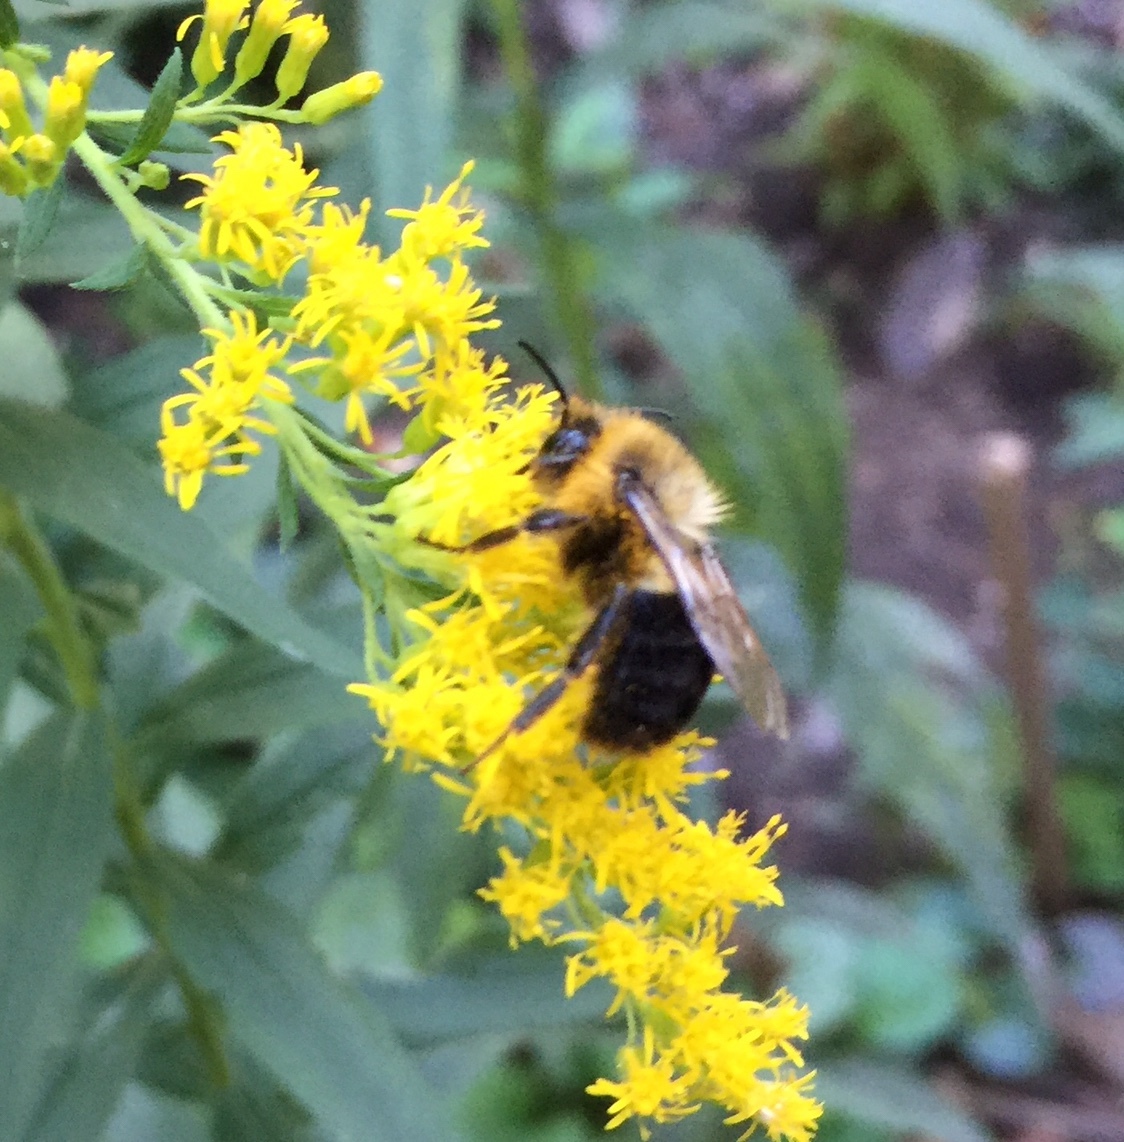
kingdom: Animalia
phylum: Arthropoda
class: Insecta
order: Hymenoptera
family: Apidae
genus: Bombus
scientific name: Bombus impatiens
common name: Common eastern bumble bee
